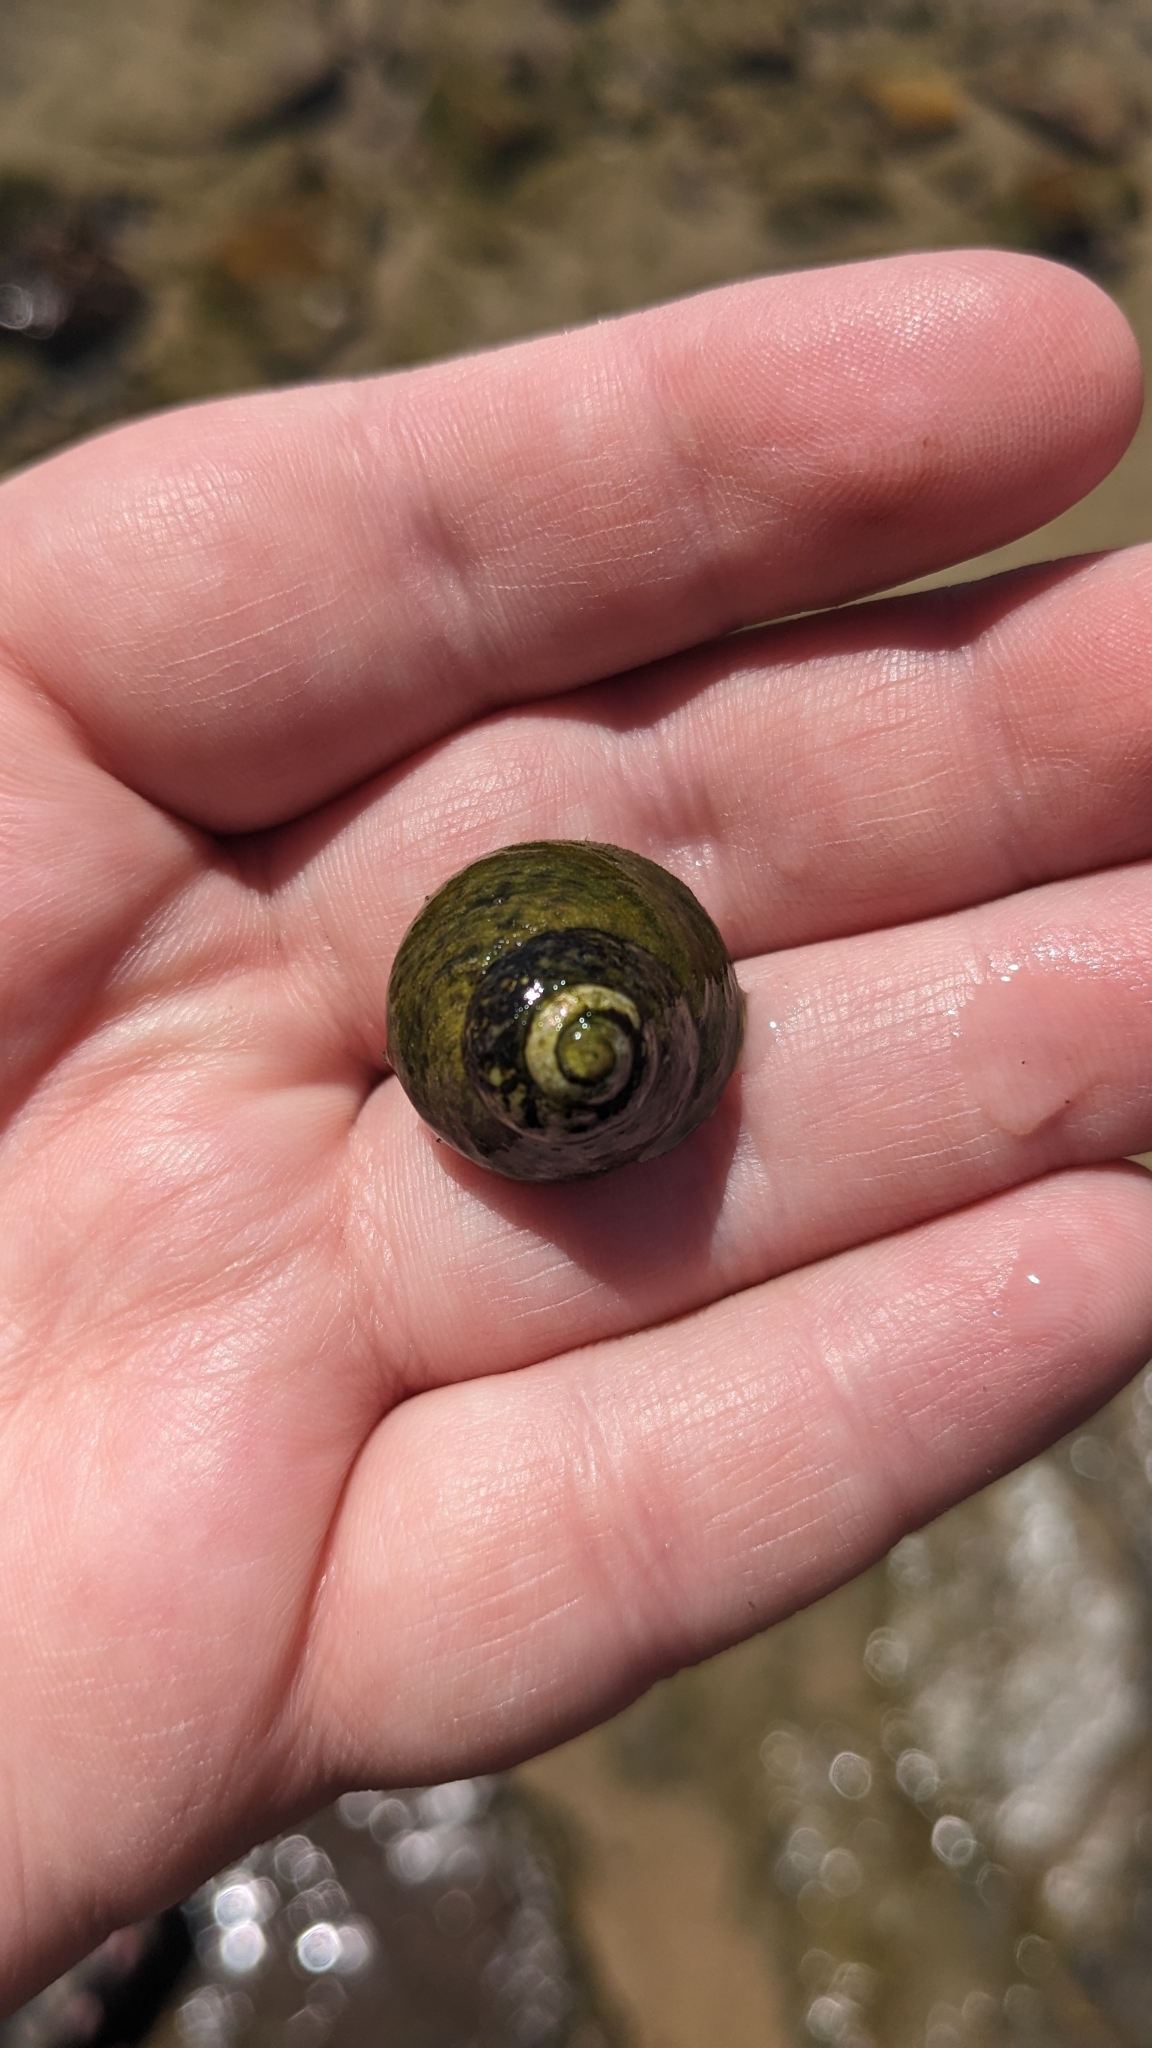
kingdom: Animalia
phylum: Mollusca
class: Gastropoda
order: Trochida
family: Tegulidae
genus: Tegula
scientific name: Tegula gallina
